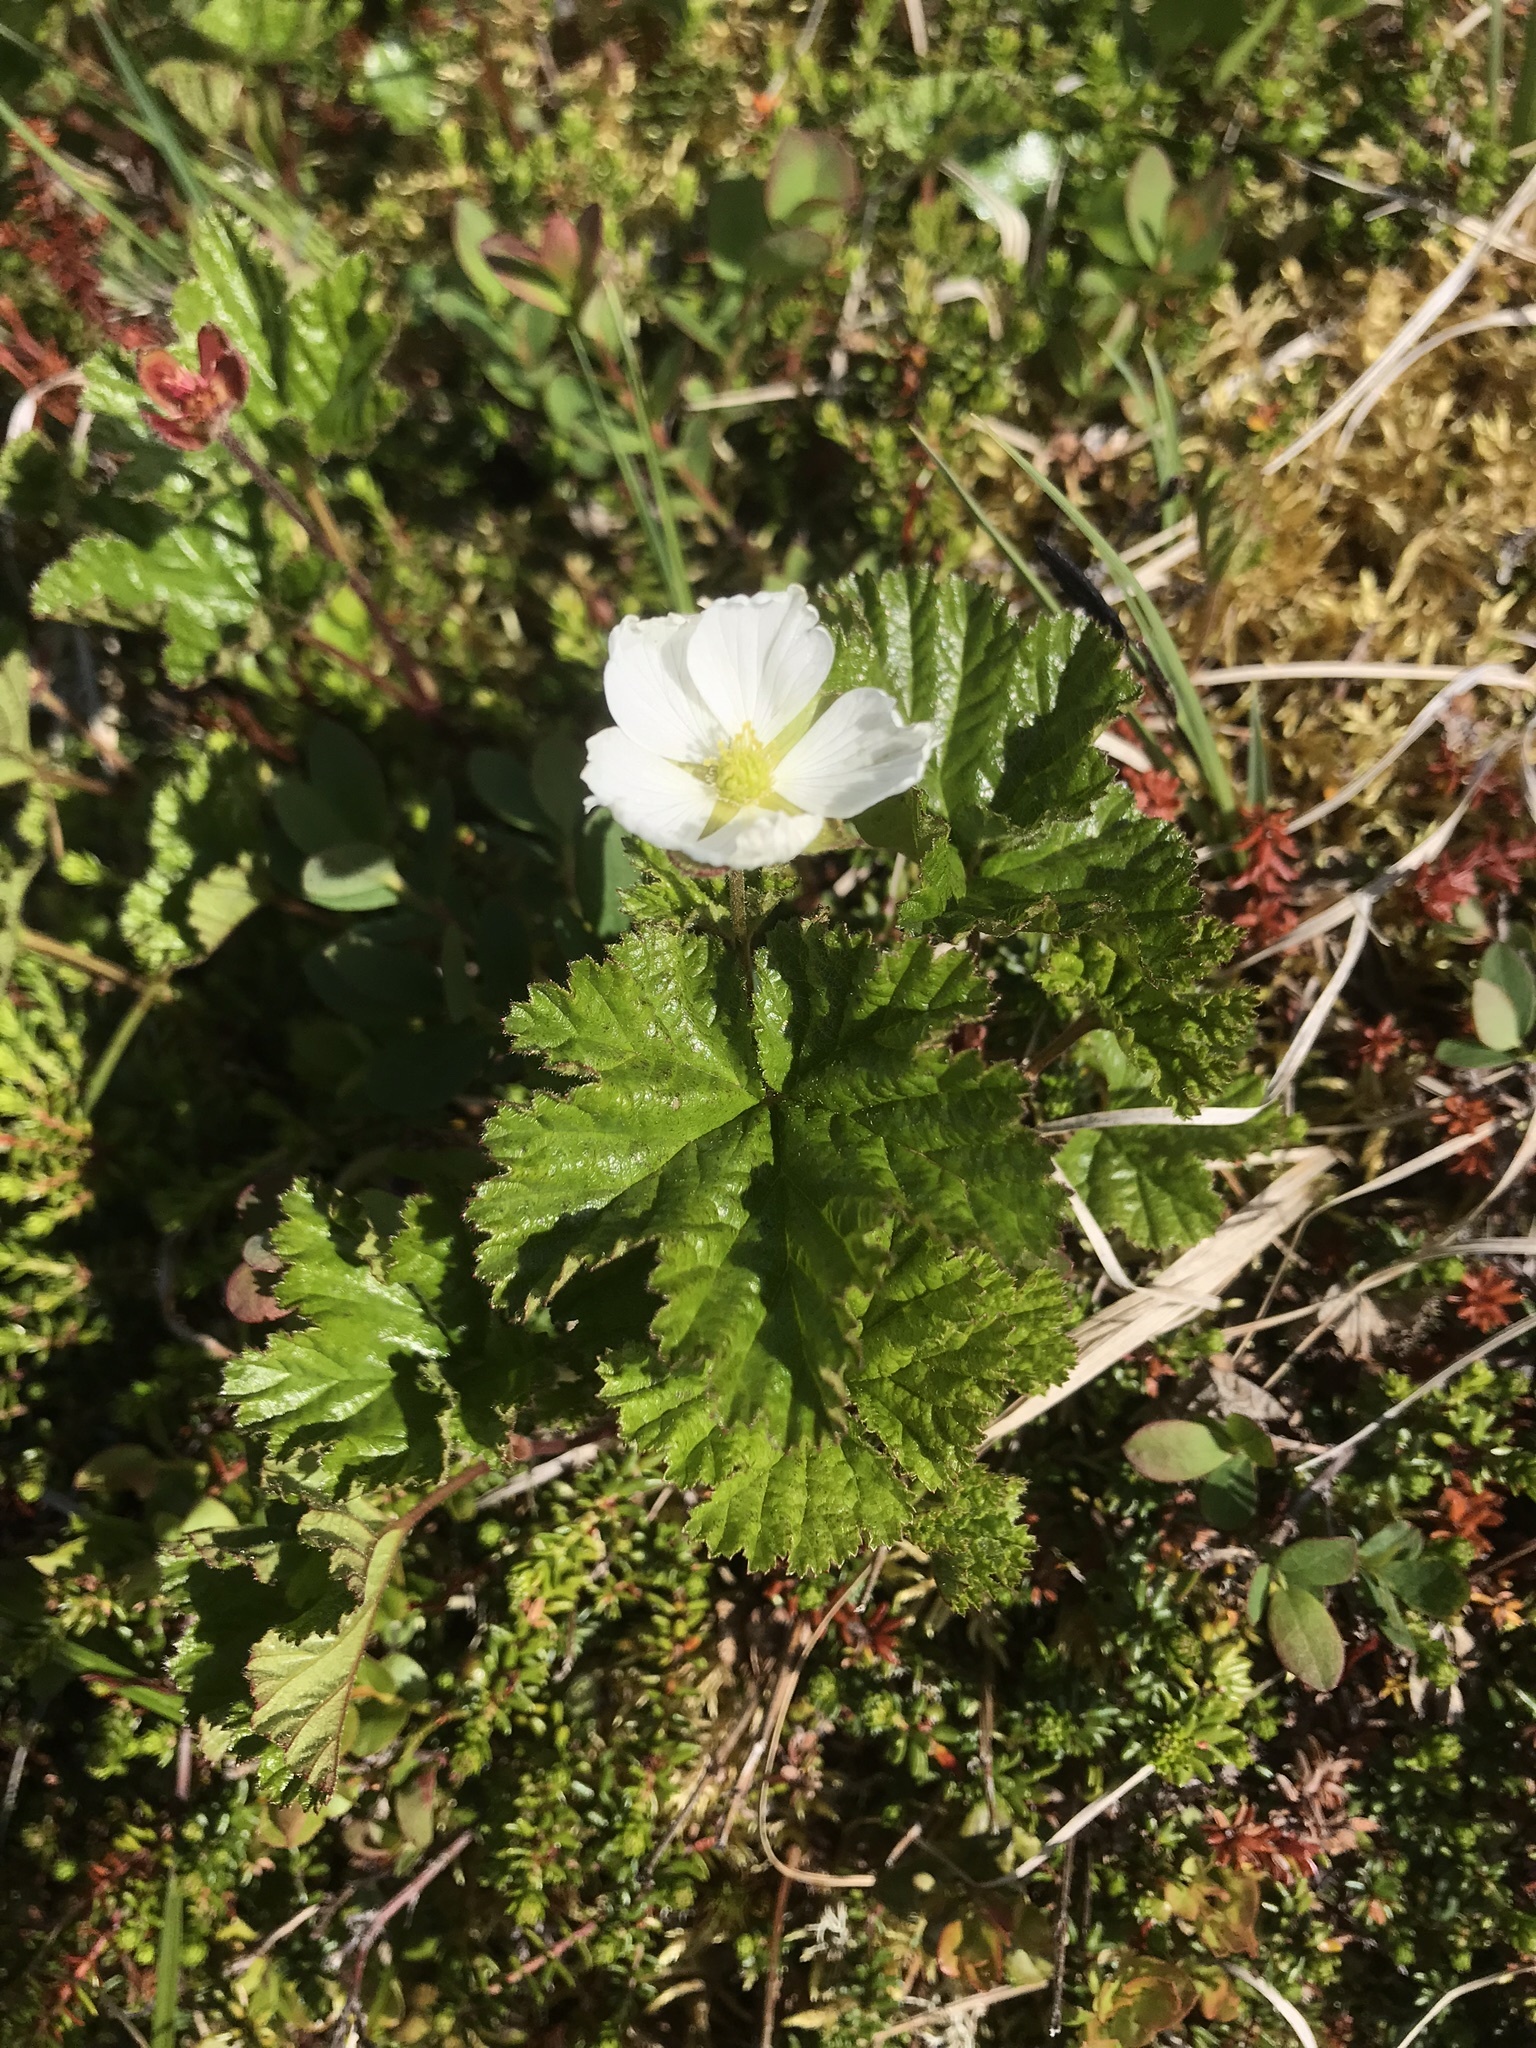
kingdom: Plantae
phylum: Tracheophyta
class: Magnoliopsida
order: Rosales
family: Rosaceae
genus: Rubus
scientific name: Rubus chamaemorus
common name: Cloudberry
